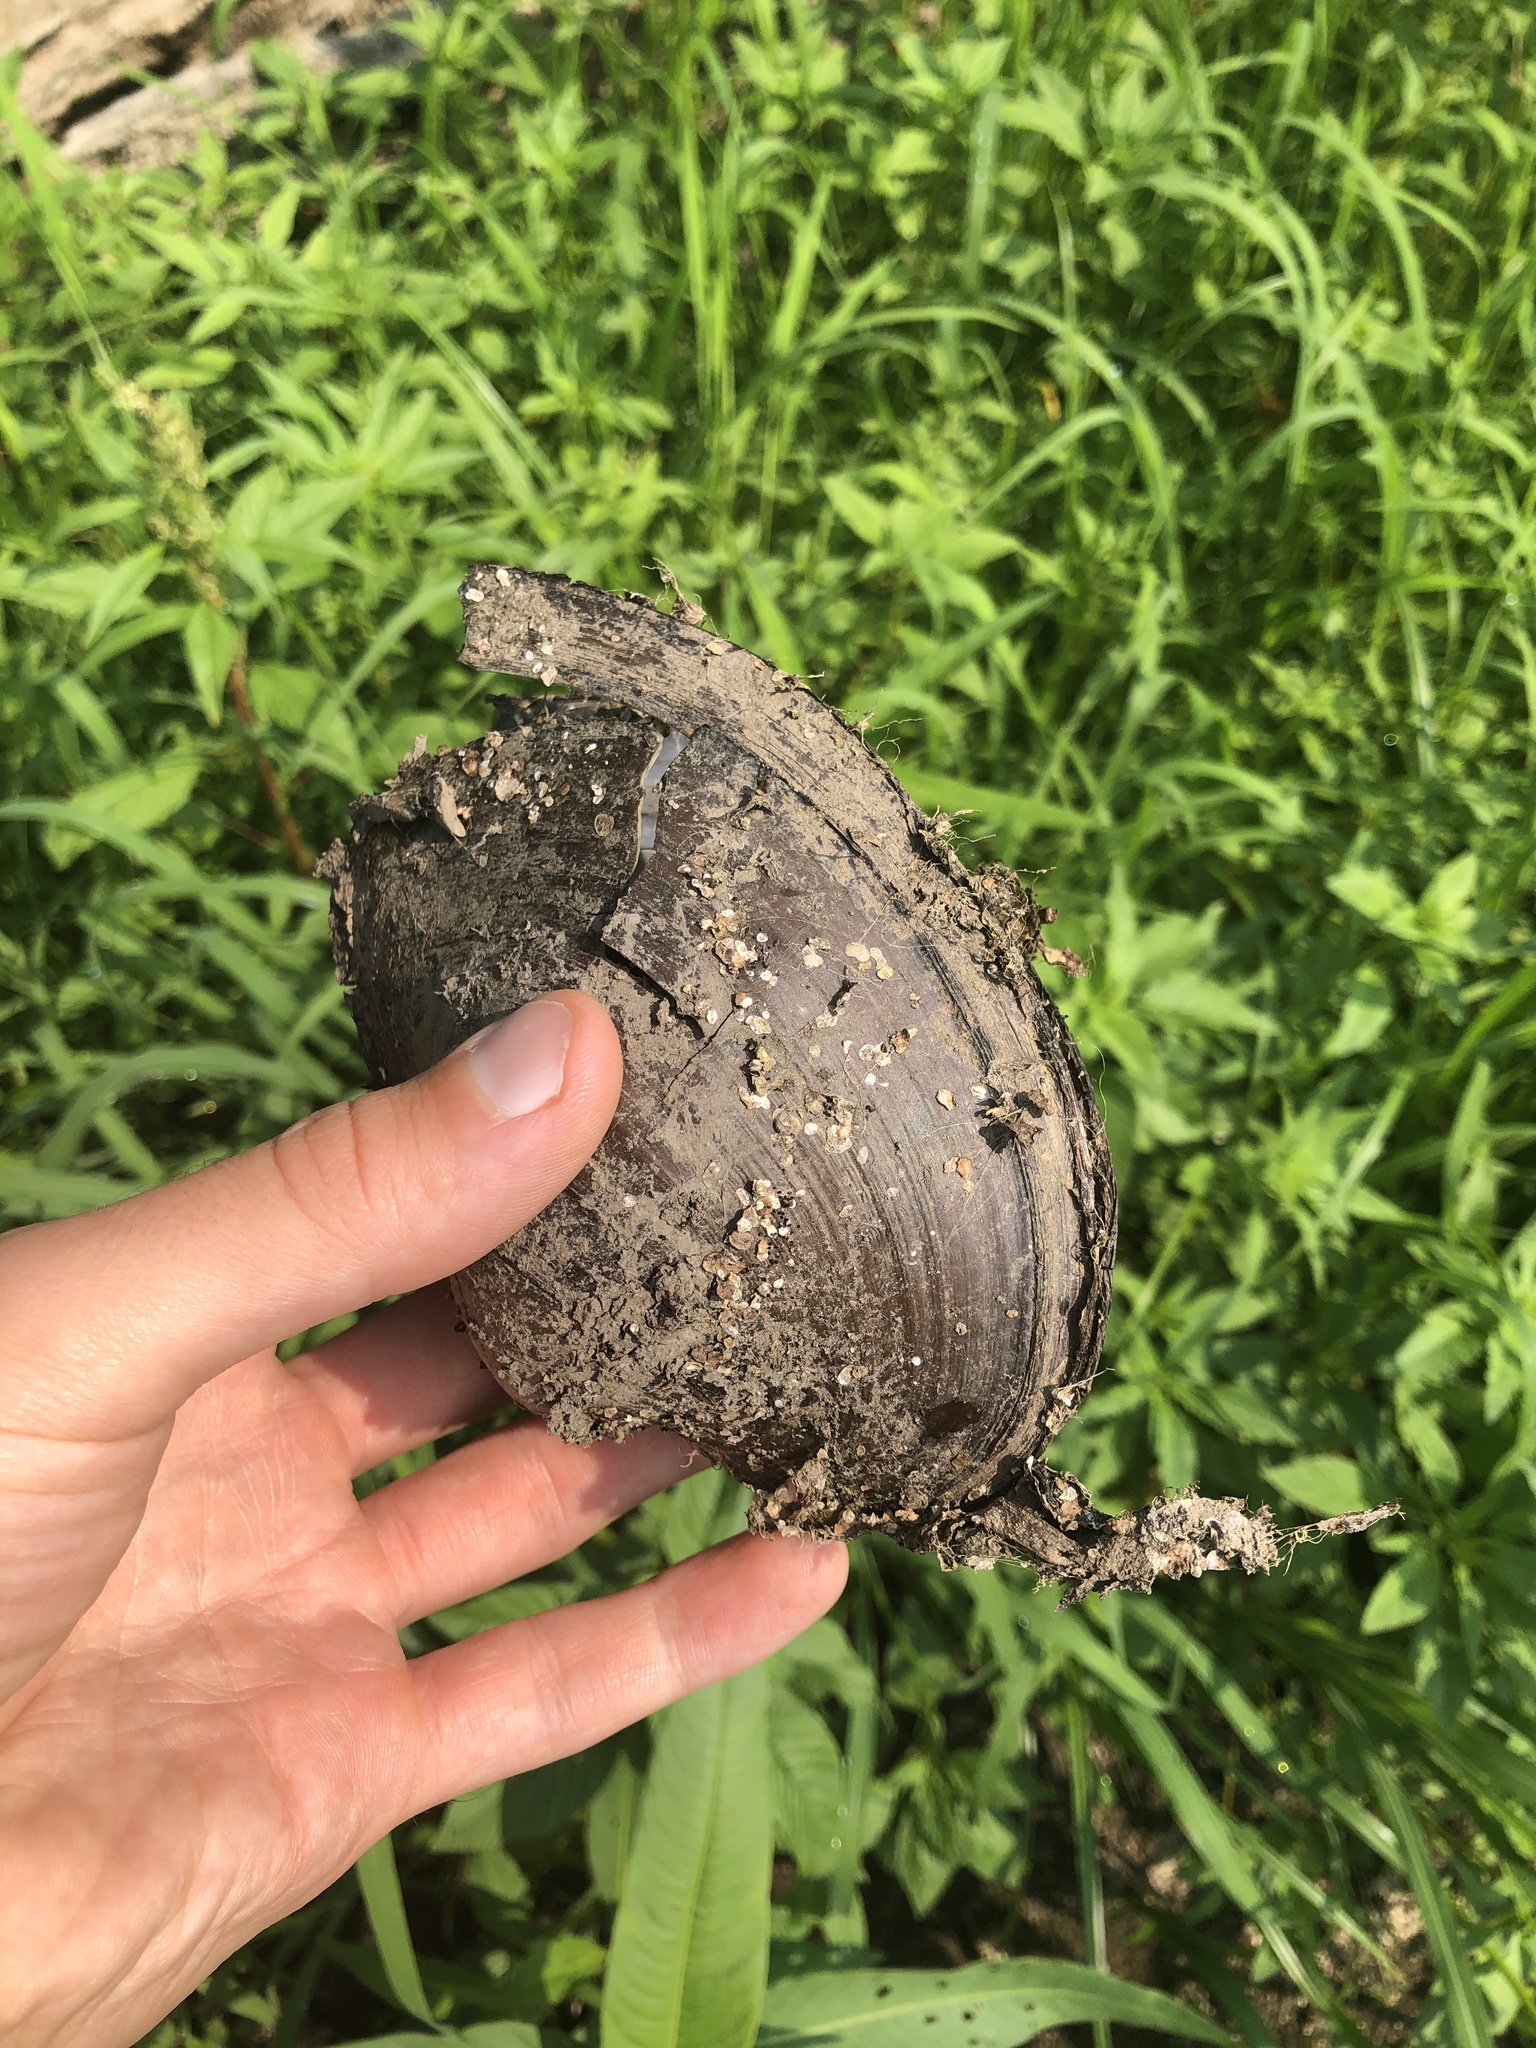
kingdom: Animalia
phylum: Mollusca
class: Bivalvia
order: Unionida
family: Unionidae
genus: Pyganodon
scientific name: Pyganodon grandis
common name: Giant floater
